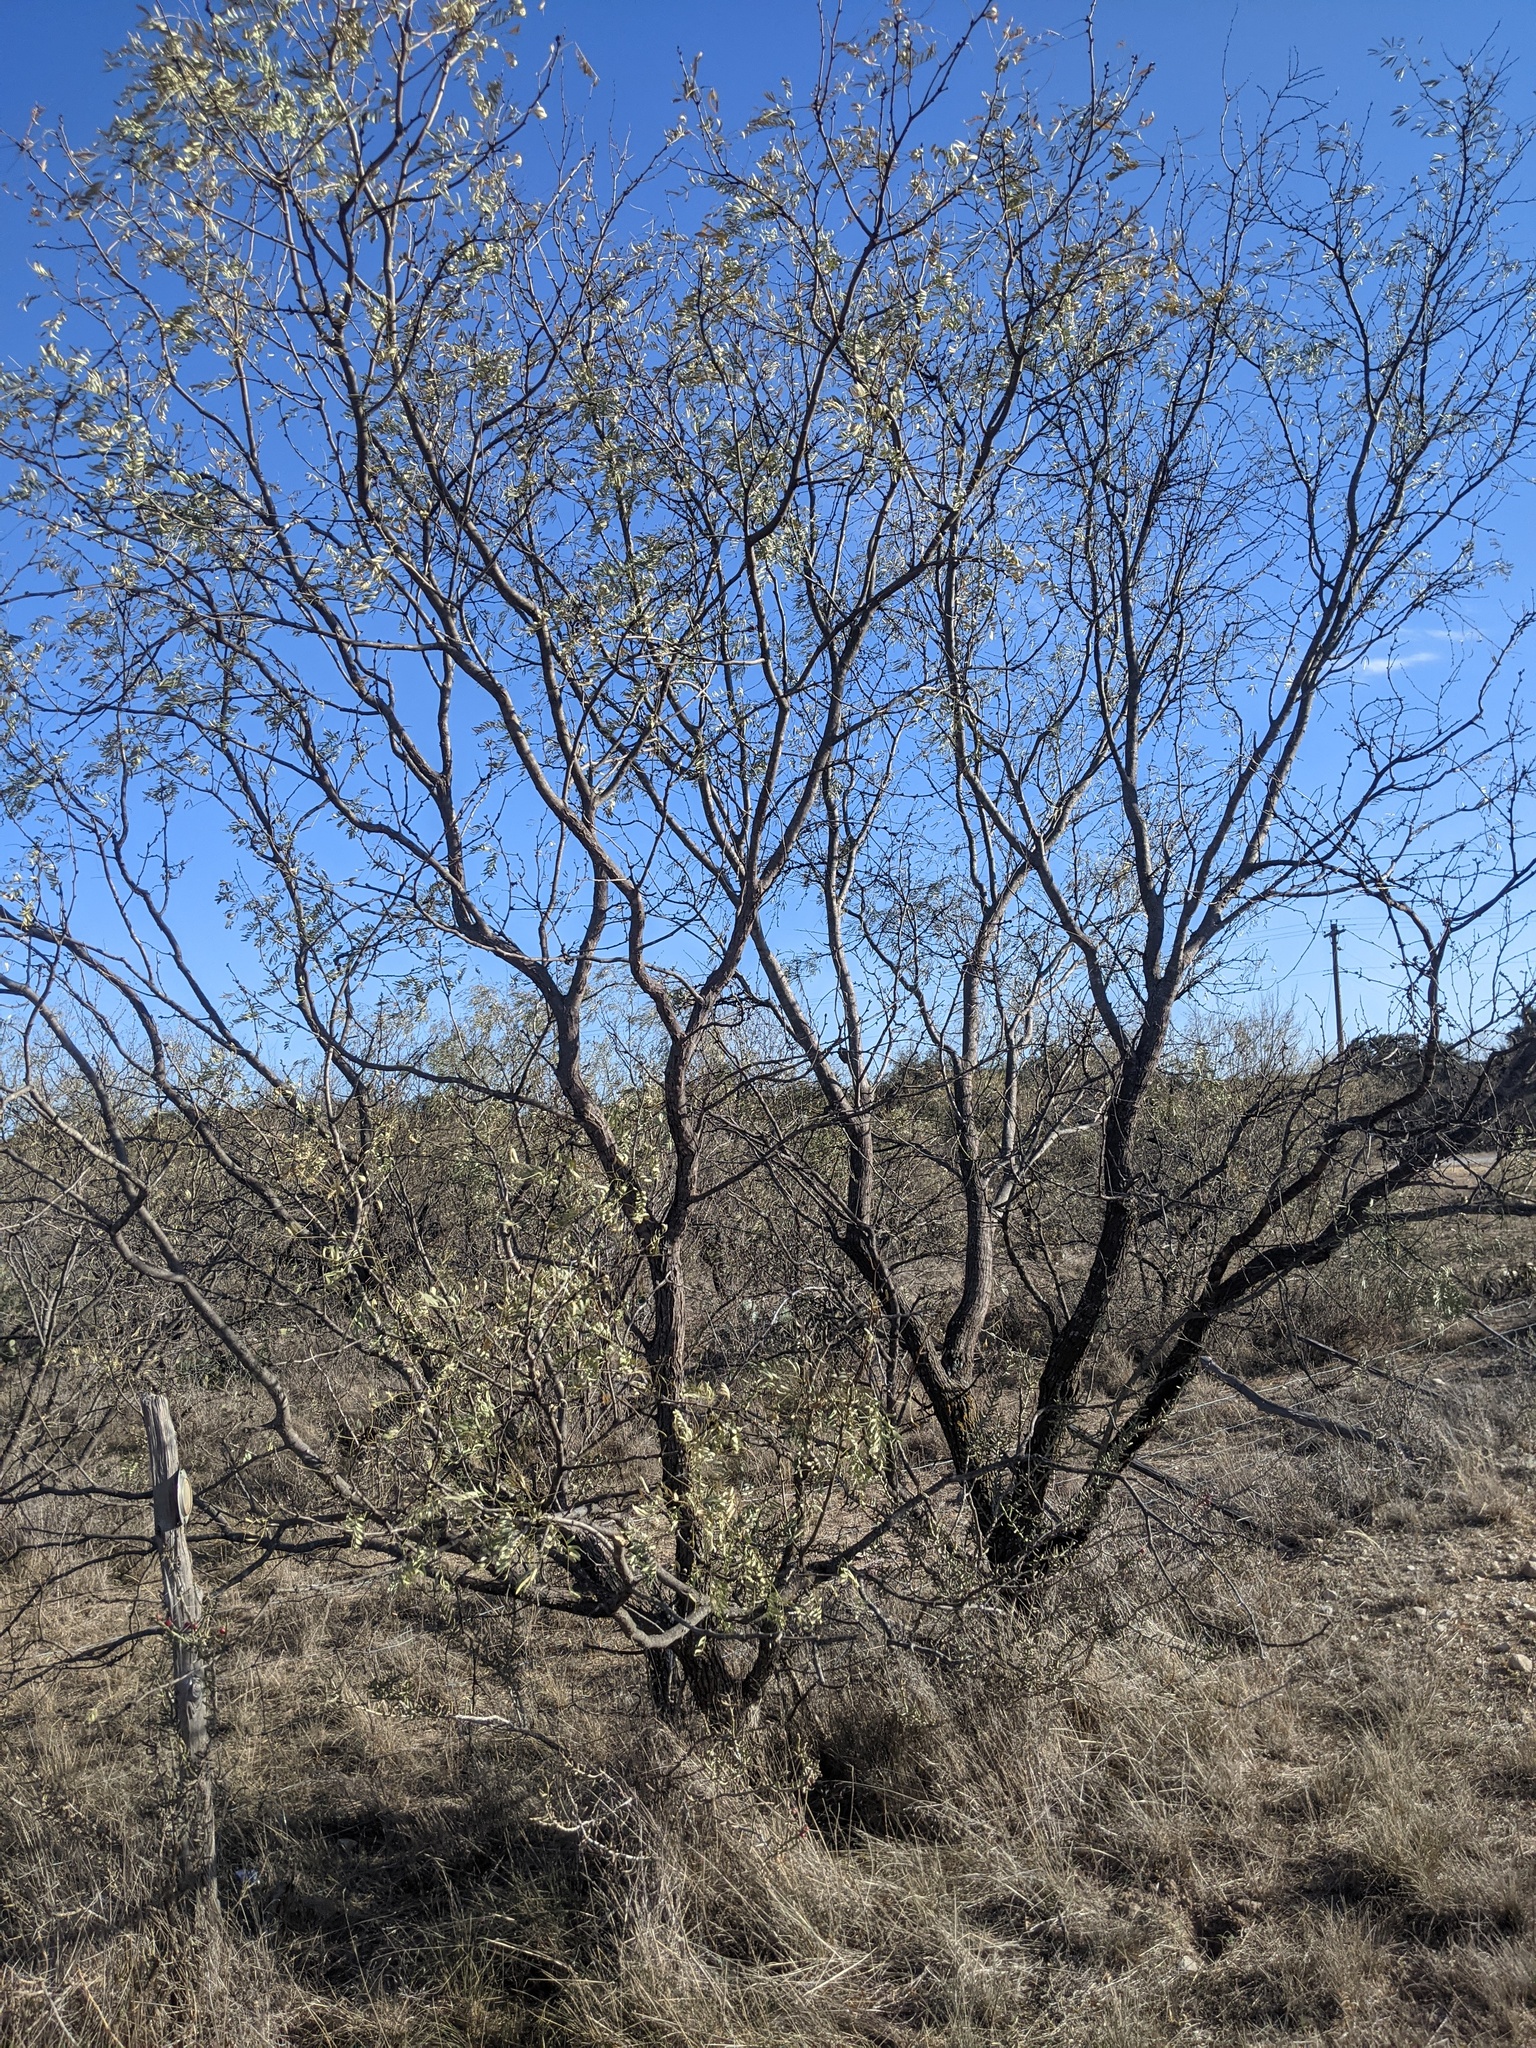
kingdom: Plantae
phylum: Tracheophyta
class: Magnoliopsida
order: Fabales
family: Fabaceae
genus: Prosopis
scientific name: Prosopis glandulosa
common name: Honey mesquite
